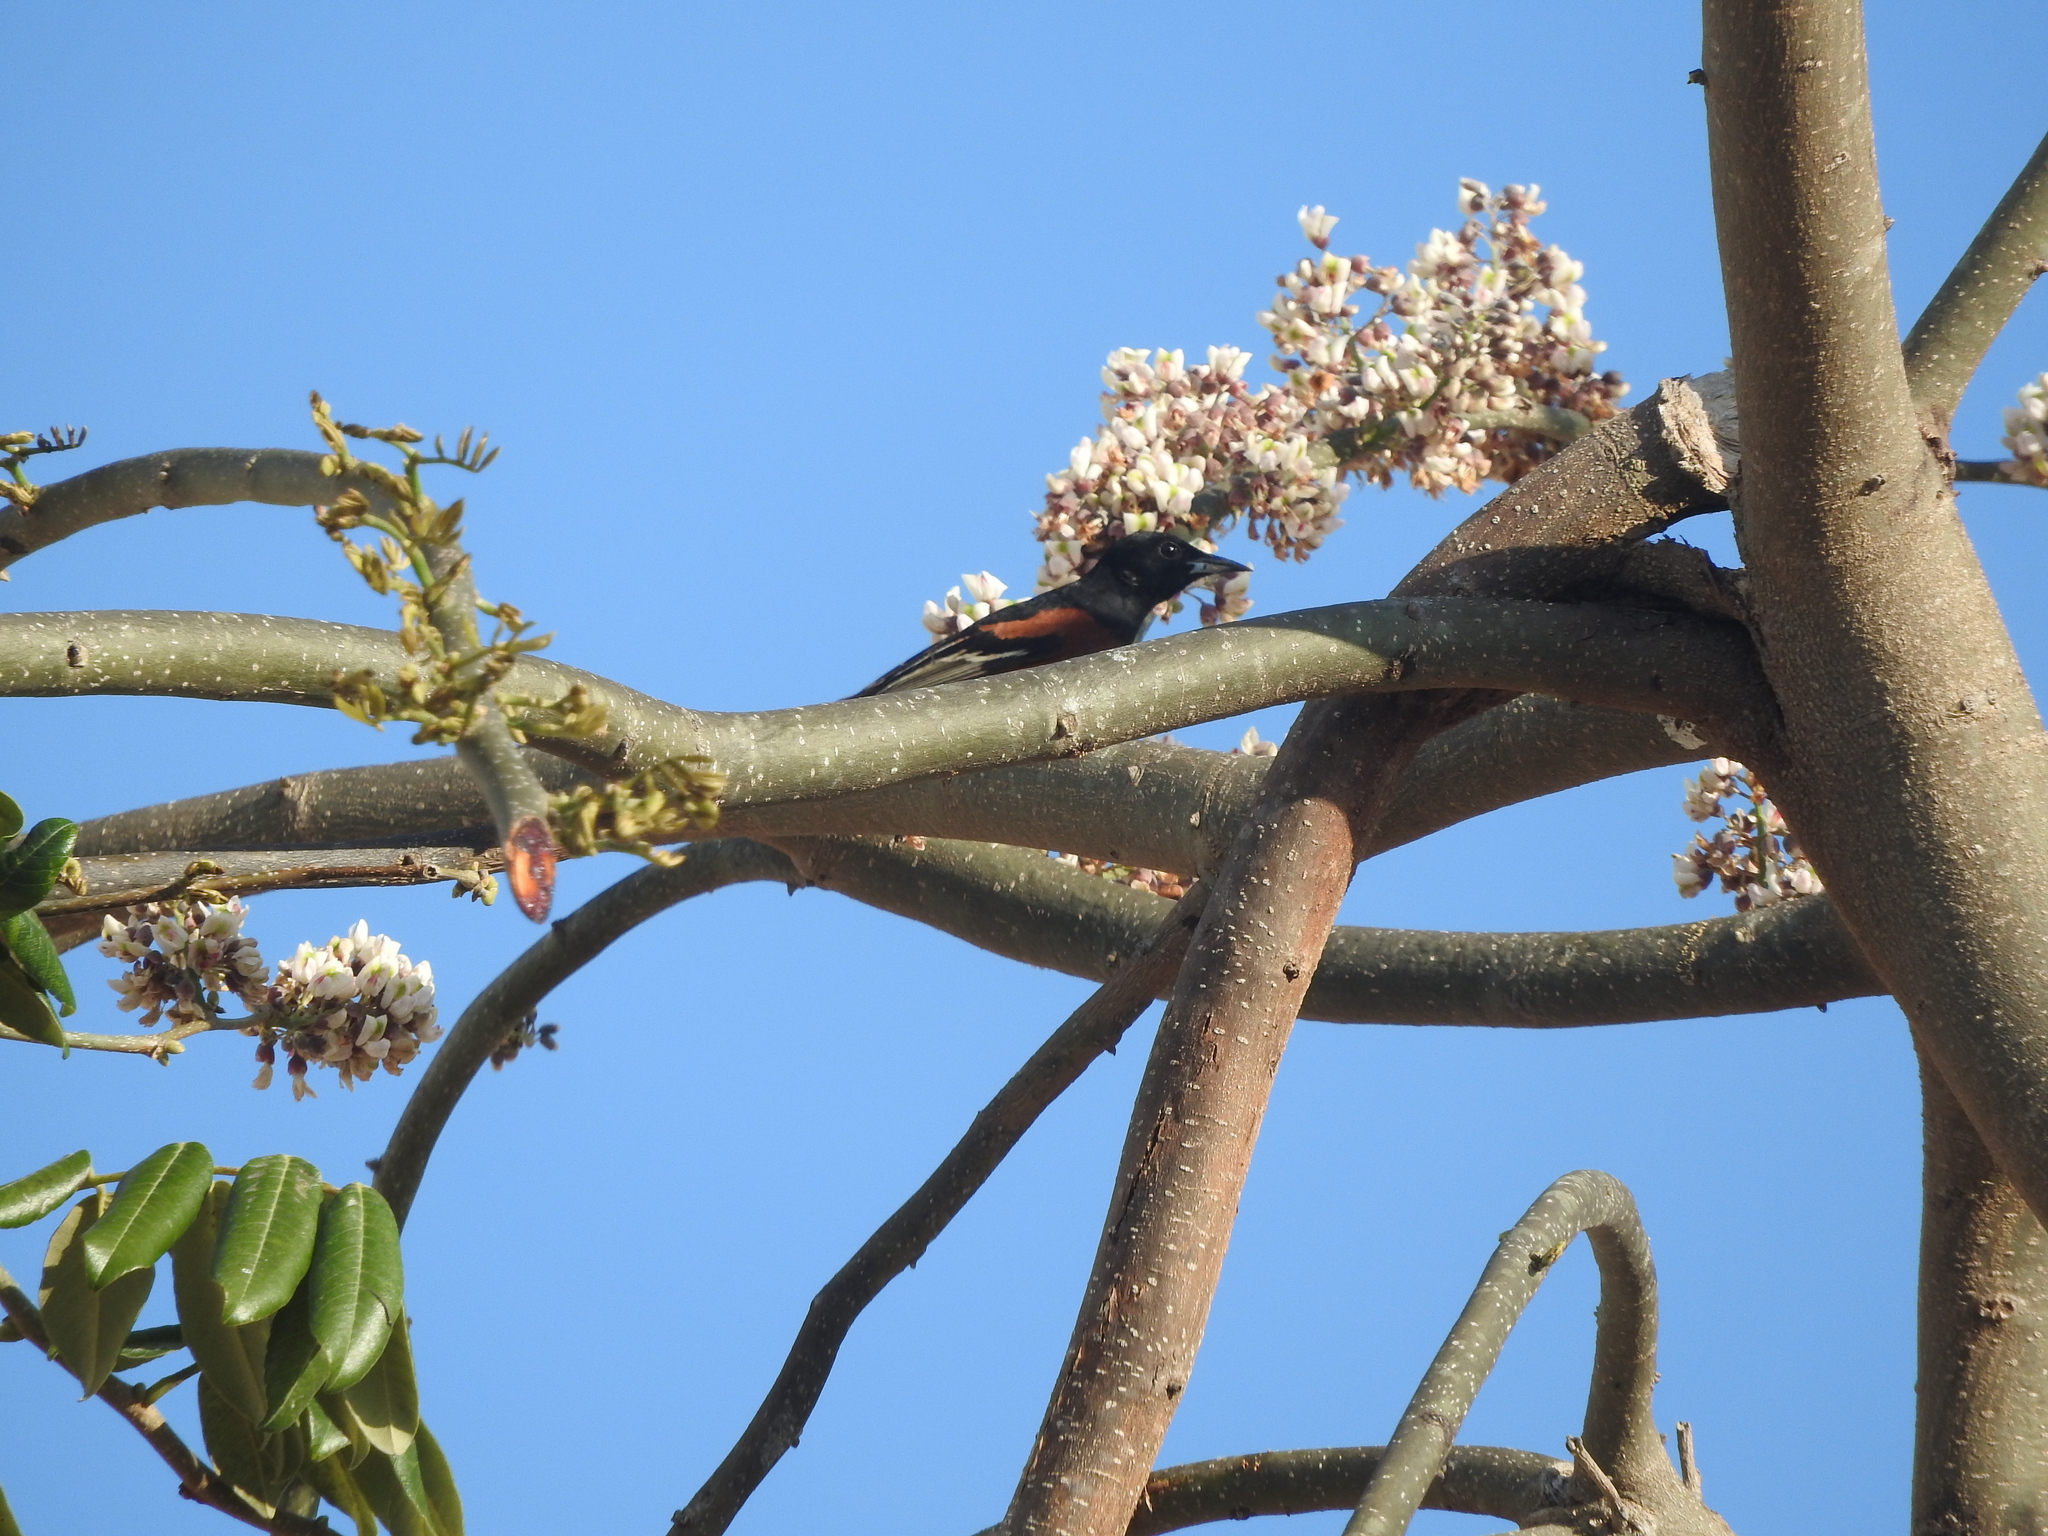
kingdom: Animalia
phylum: Chordata
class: Aves
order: Passeriformes
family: Icteridae
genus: Icterus
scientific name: Icterus spurius
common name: Orchard oriole
